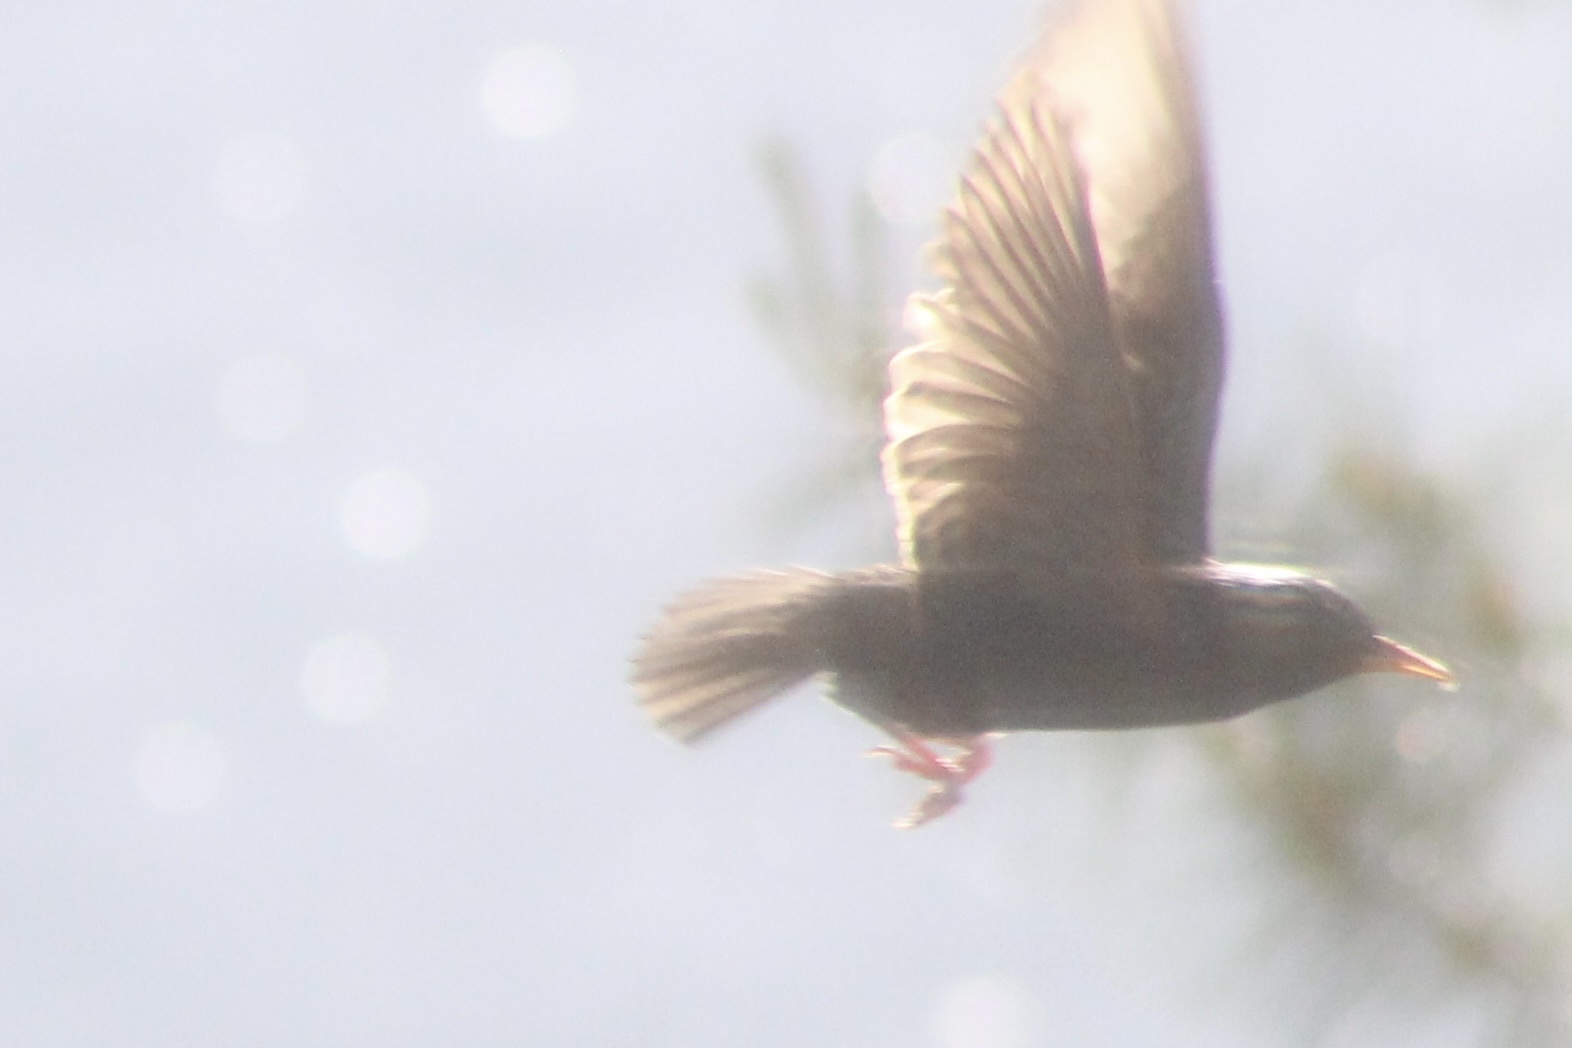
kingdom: Animalia
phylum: Chordata
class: Aves
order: Passeriformes
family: Sturnidae
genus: Sturnus
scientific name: Sturnus vulgaris
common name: Common starling
